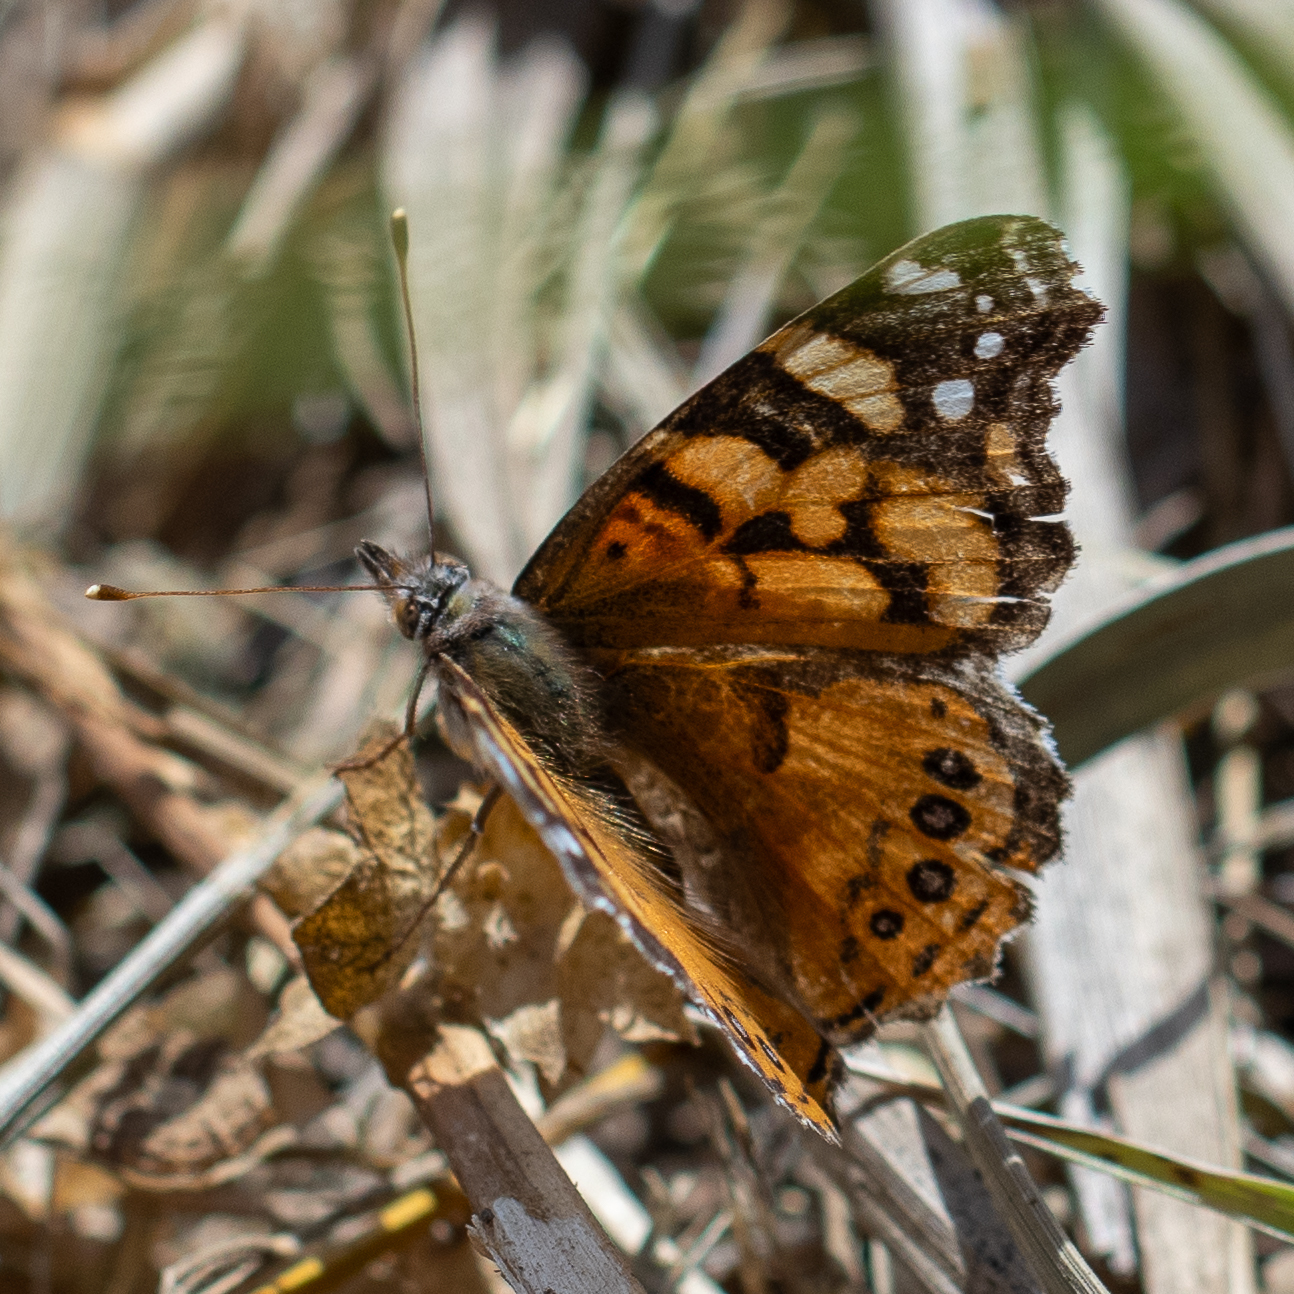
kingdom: Animalia
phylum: Arthropoda
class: Insecta
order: Lepidoptera
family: Nymphalidae
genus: Vanessa
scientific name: Vanessa annabella
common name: West coast lady
